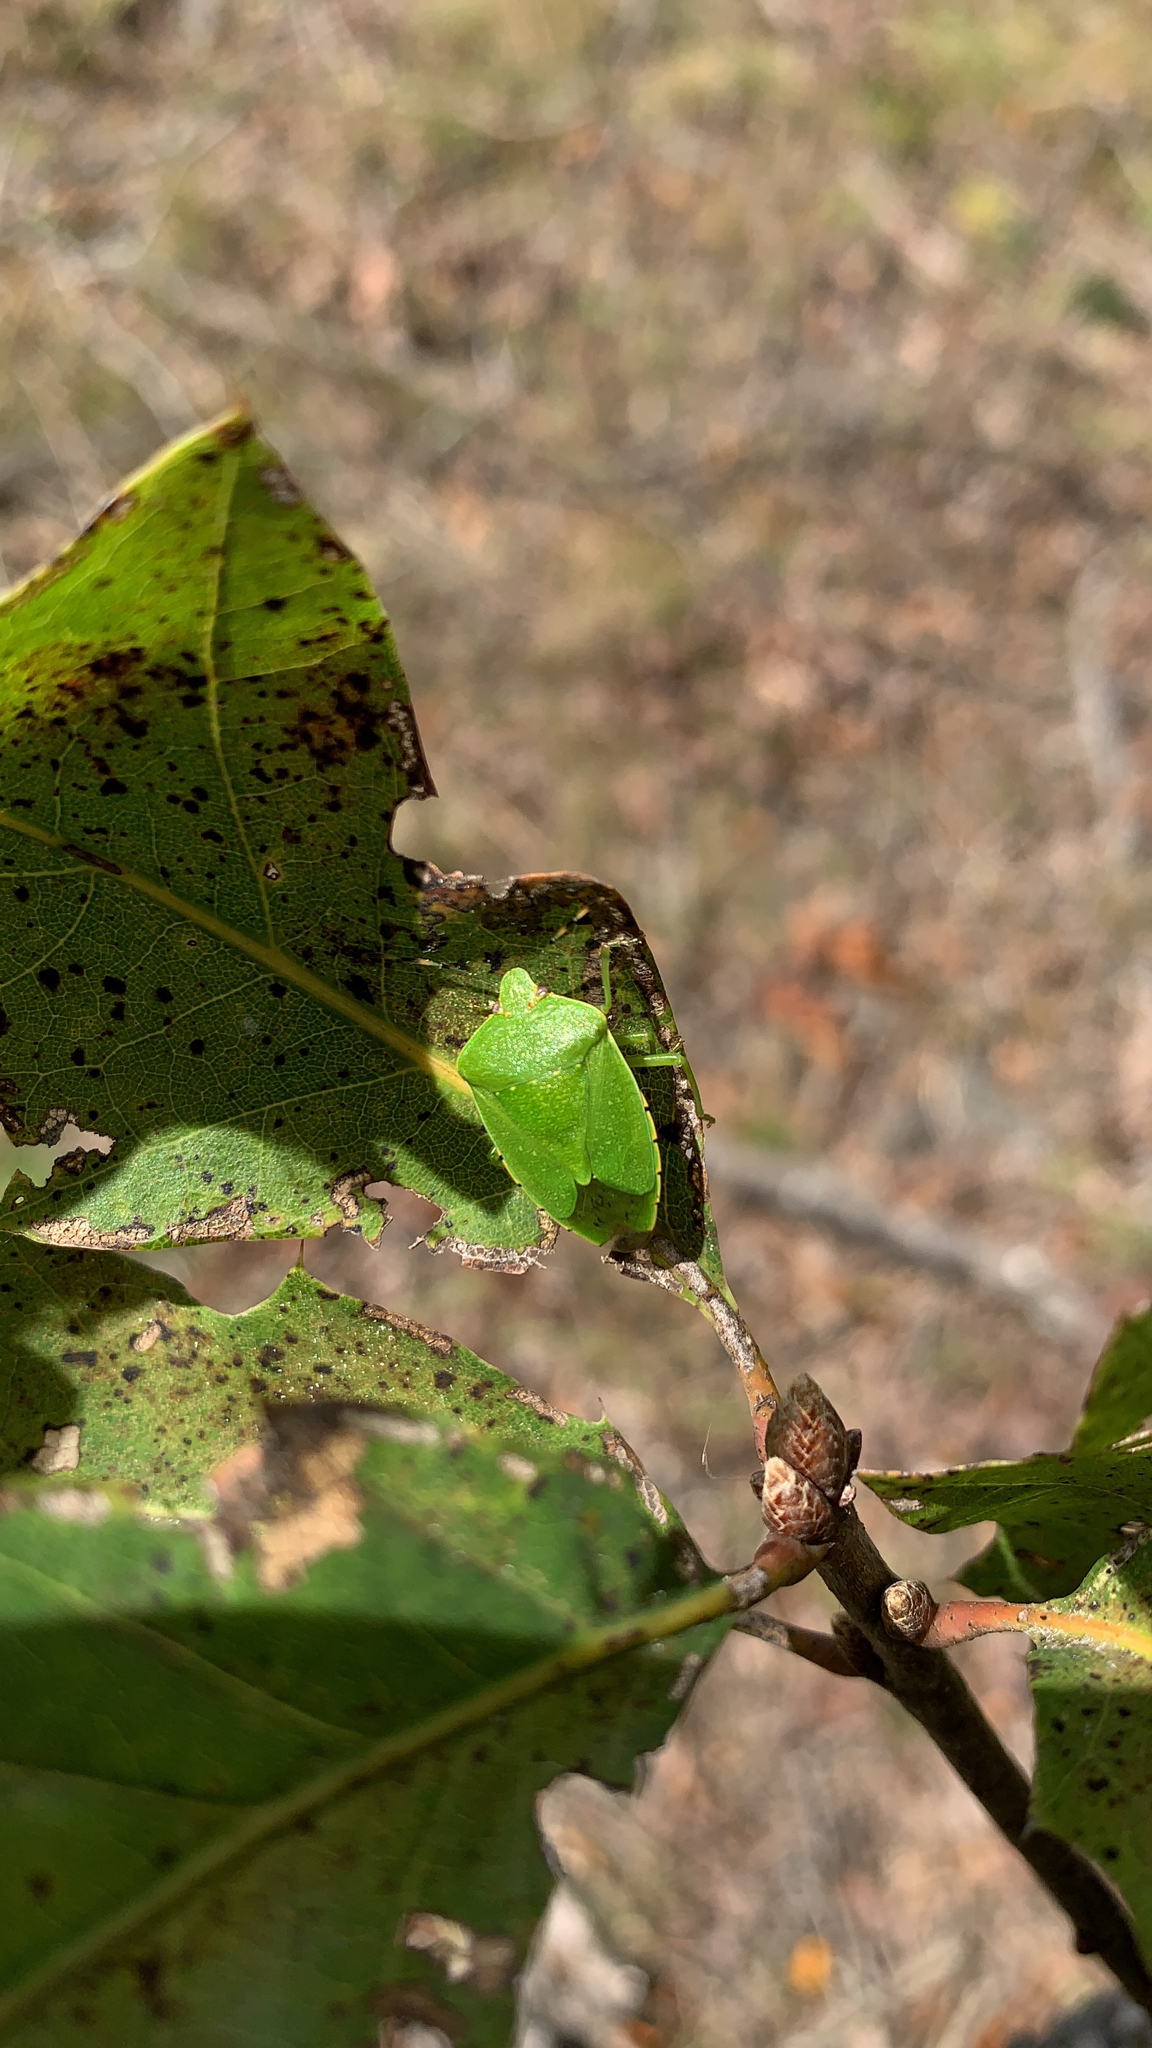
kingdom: Animalia
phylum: Arthropoda
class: Insecta
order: Hemiptera
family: Pentatomidae
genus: Chinavia
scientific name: Chinavia hilaris
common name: Green stink bug
